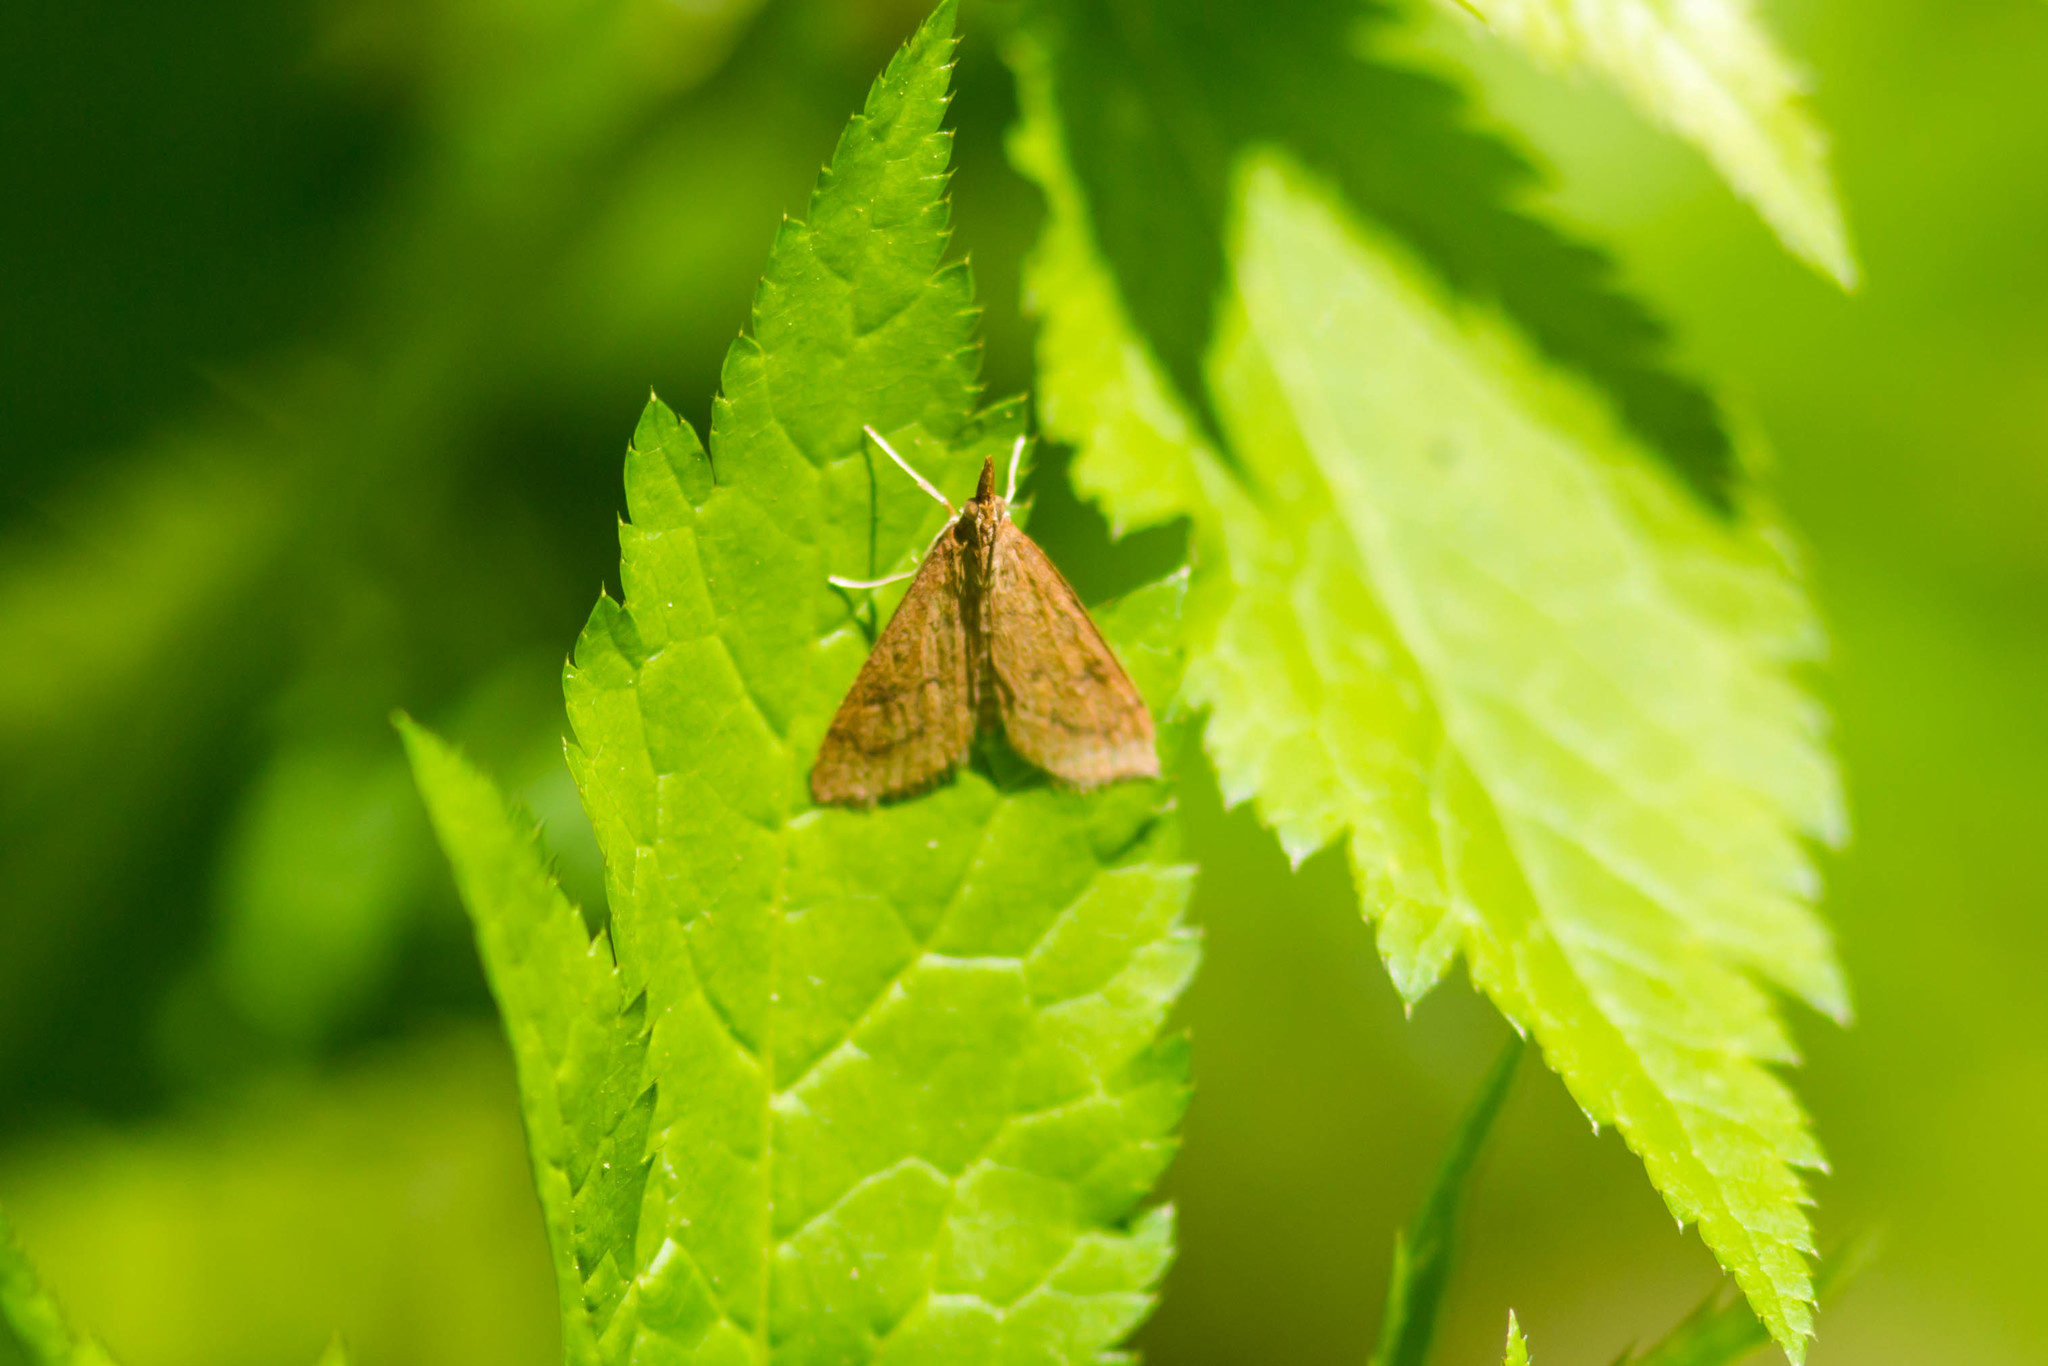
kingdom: Animalia
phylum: Arthropoda
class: Insecta
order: Lepidoptera
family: Crambidae
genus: Udea
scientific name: Udea rubigalis
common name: Celery leaftier moth
